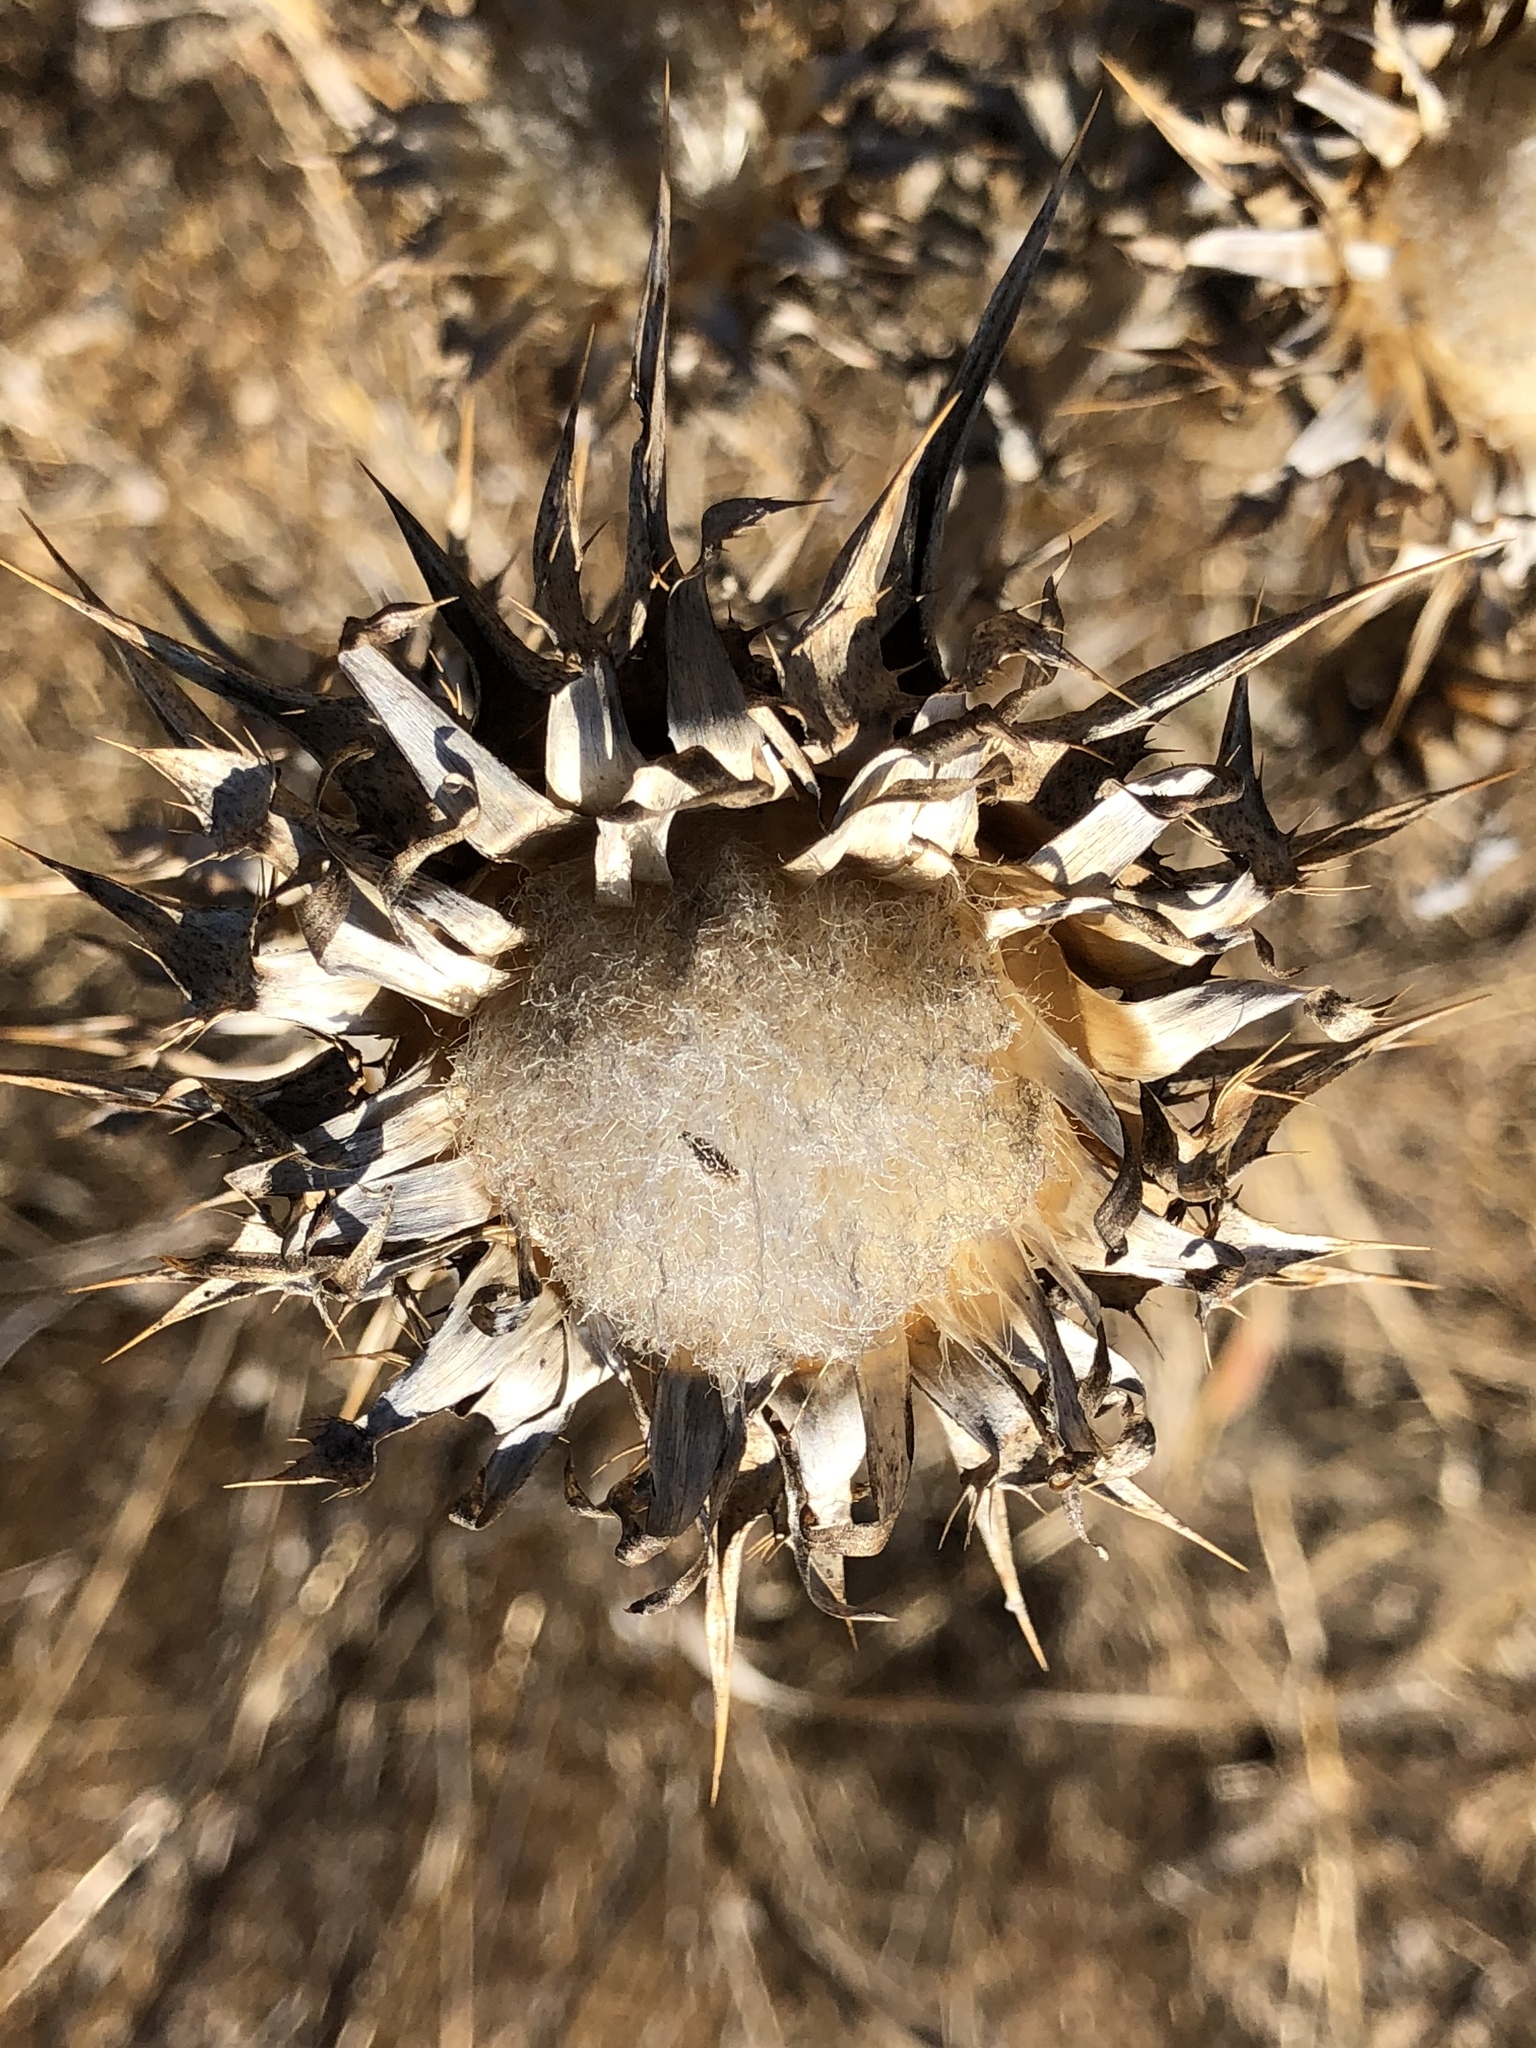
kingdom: Plantae
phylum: Tracheophyta
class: Magnoliopsida
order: Asterales
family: Asteraceae
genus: Silybum
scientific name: Silybum marianum
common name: Milk thistle
